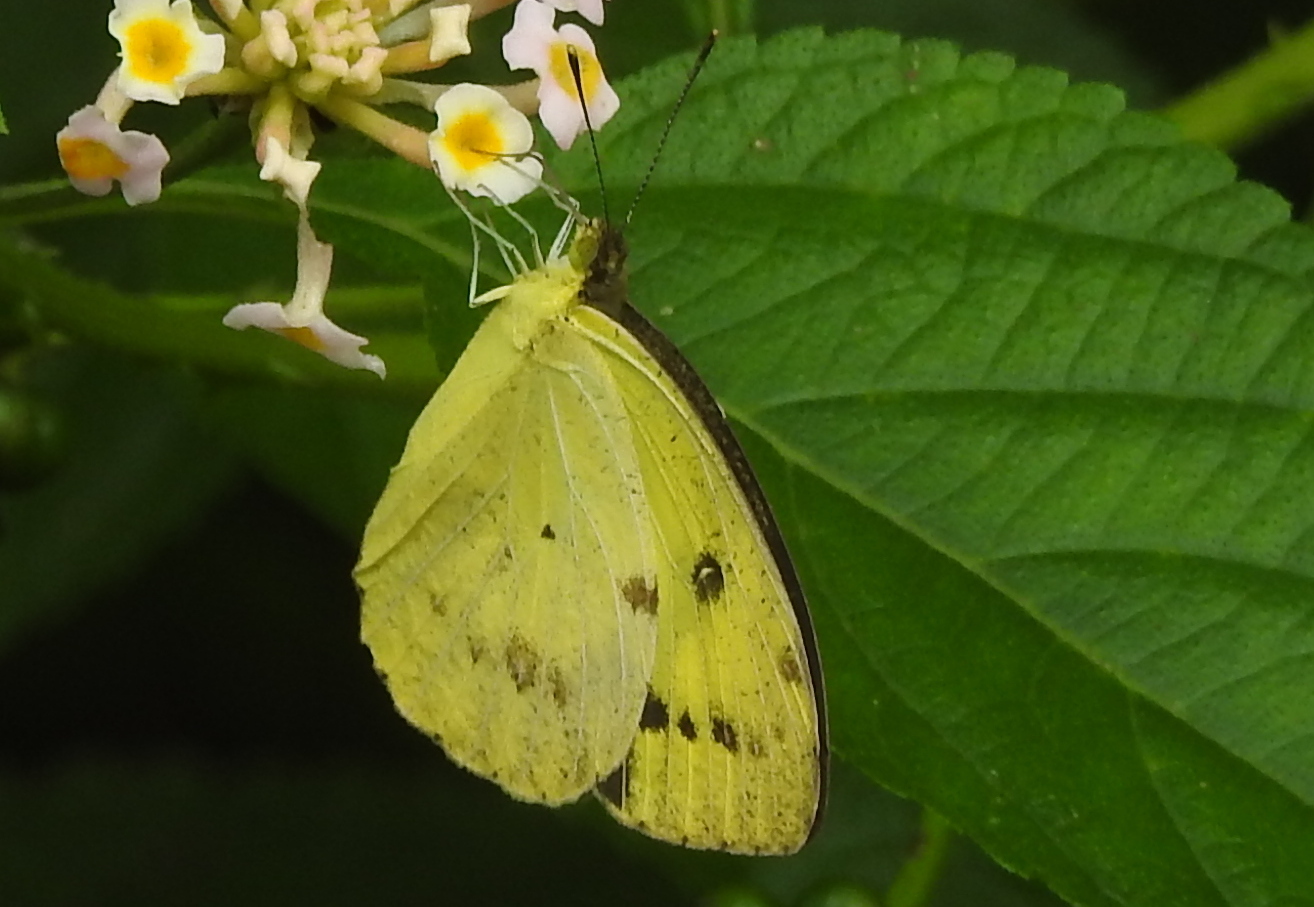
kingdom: Animalia
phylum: Arthropoda
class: Insecta
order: Lepidoptera
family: Pieridae
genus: Ixias
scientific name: Ixias pyrene
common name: Yellow orange tip
